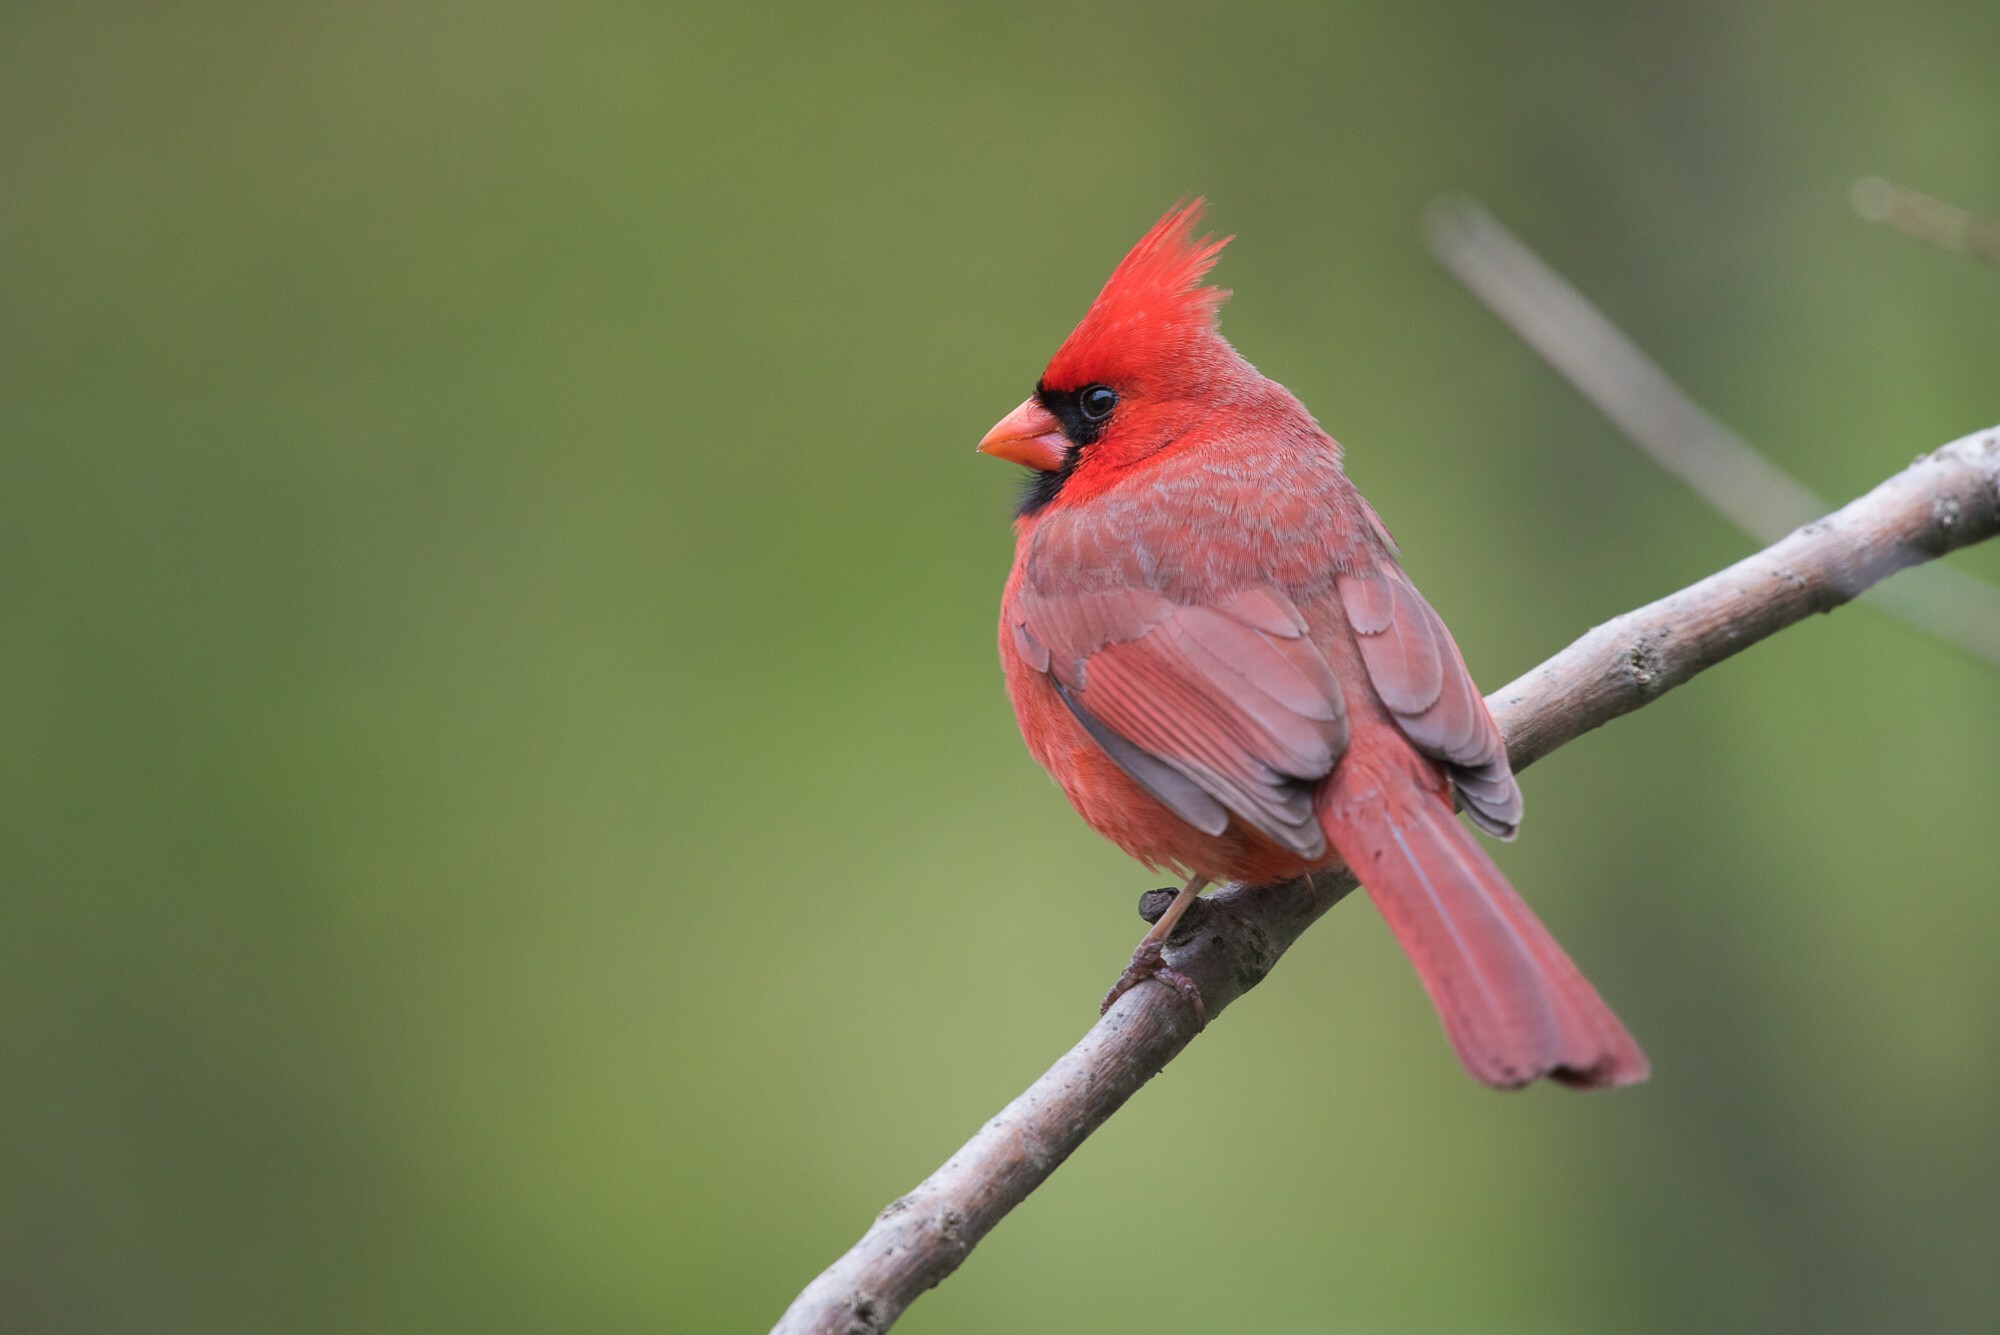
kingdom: Animalia
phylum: Chordata
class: Aves
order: Passeriformes
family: Cardinalidae
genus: Cardinalis
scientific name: Cardinalis cardinalis
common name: Northern cardinal
